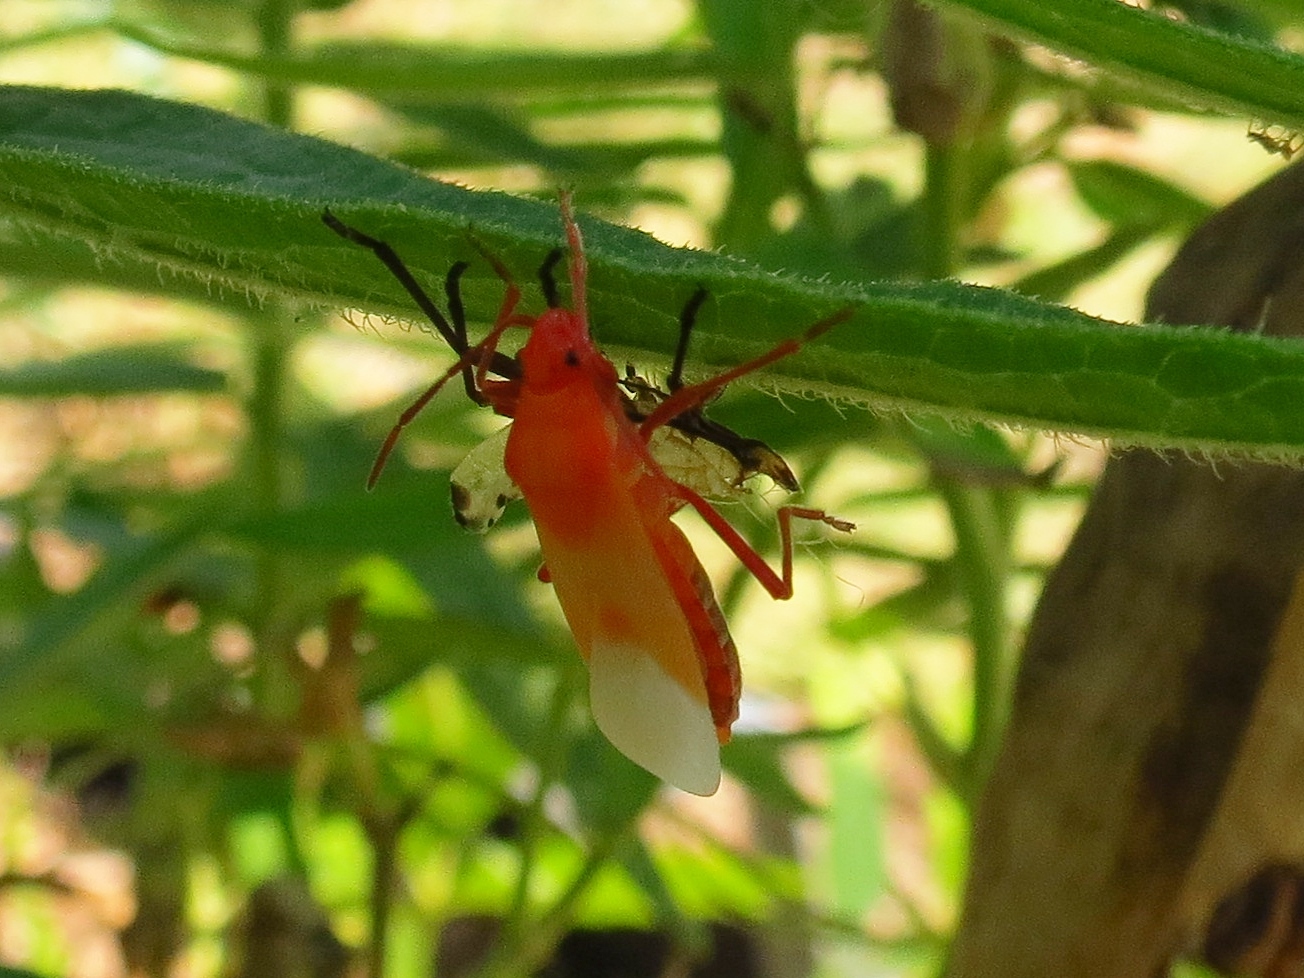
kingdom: Animalia
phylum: Arthropoda
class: Insecta
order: Hemiptera
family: Lygaeidae
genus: Oncopeltus
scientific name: Oncopeltus fasciatus
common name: Large milkweed bug
